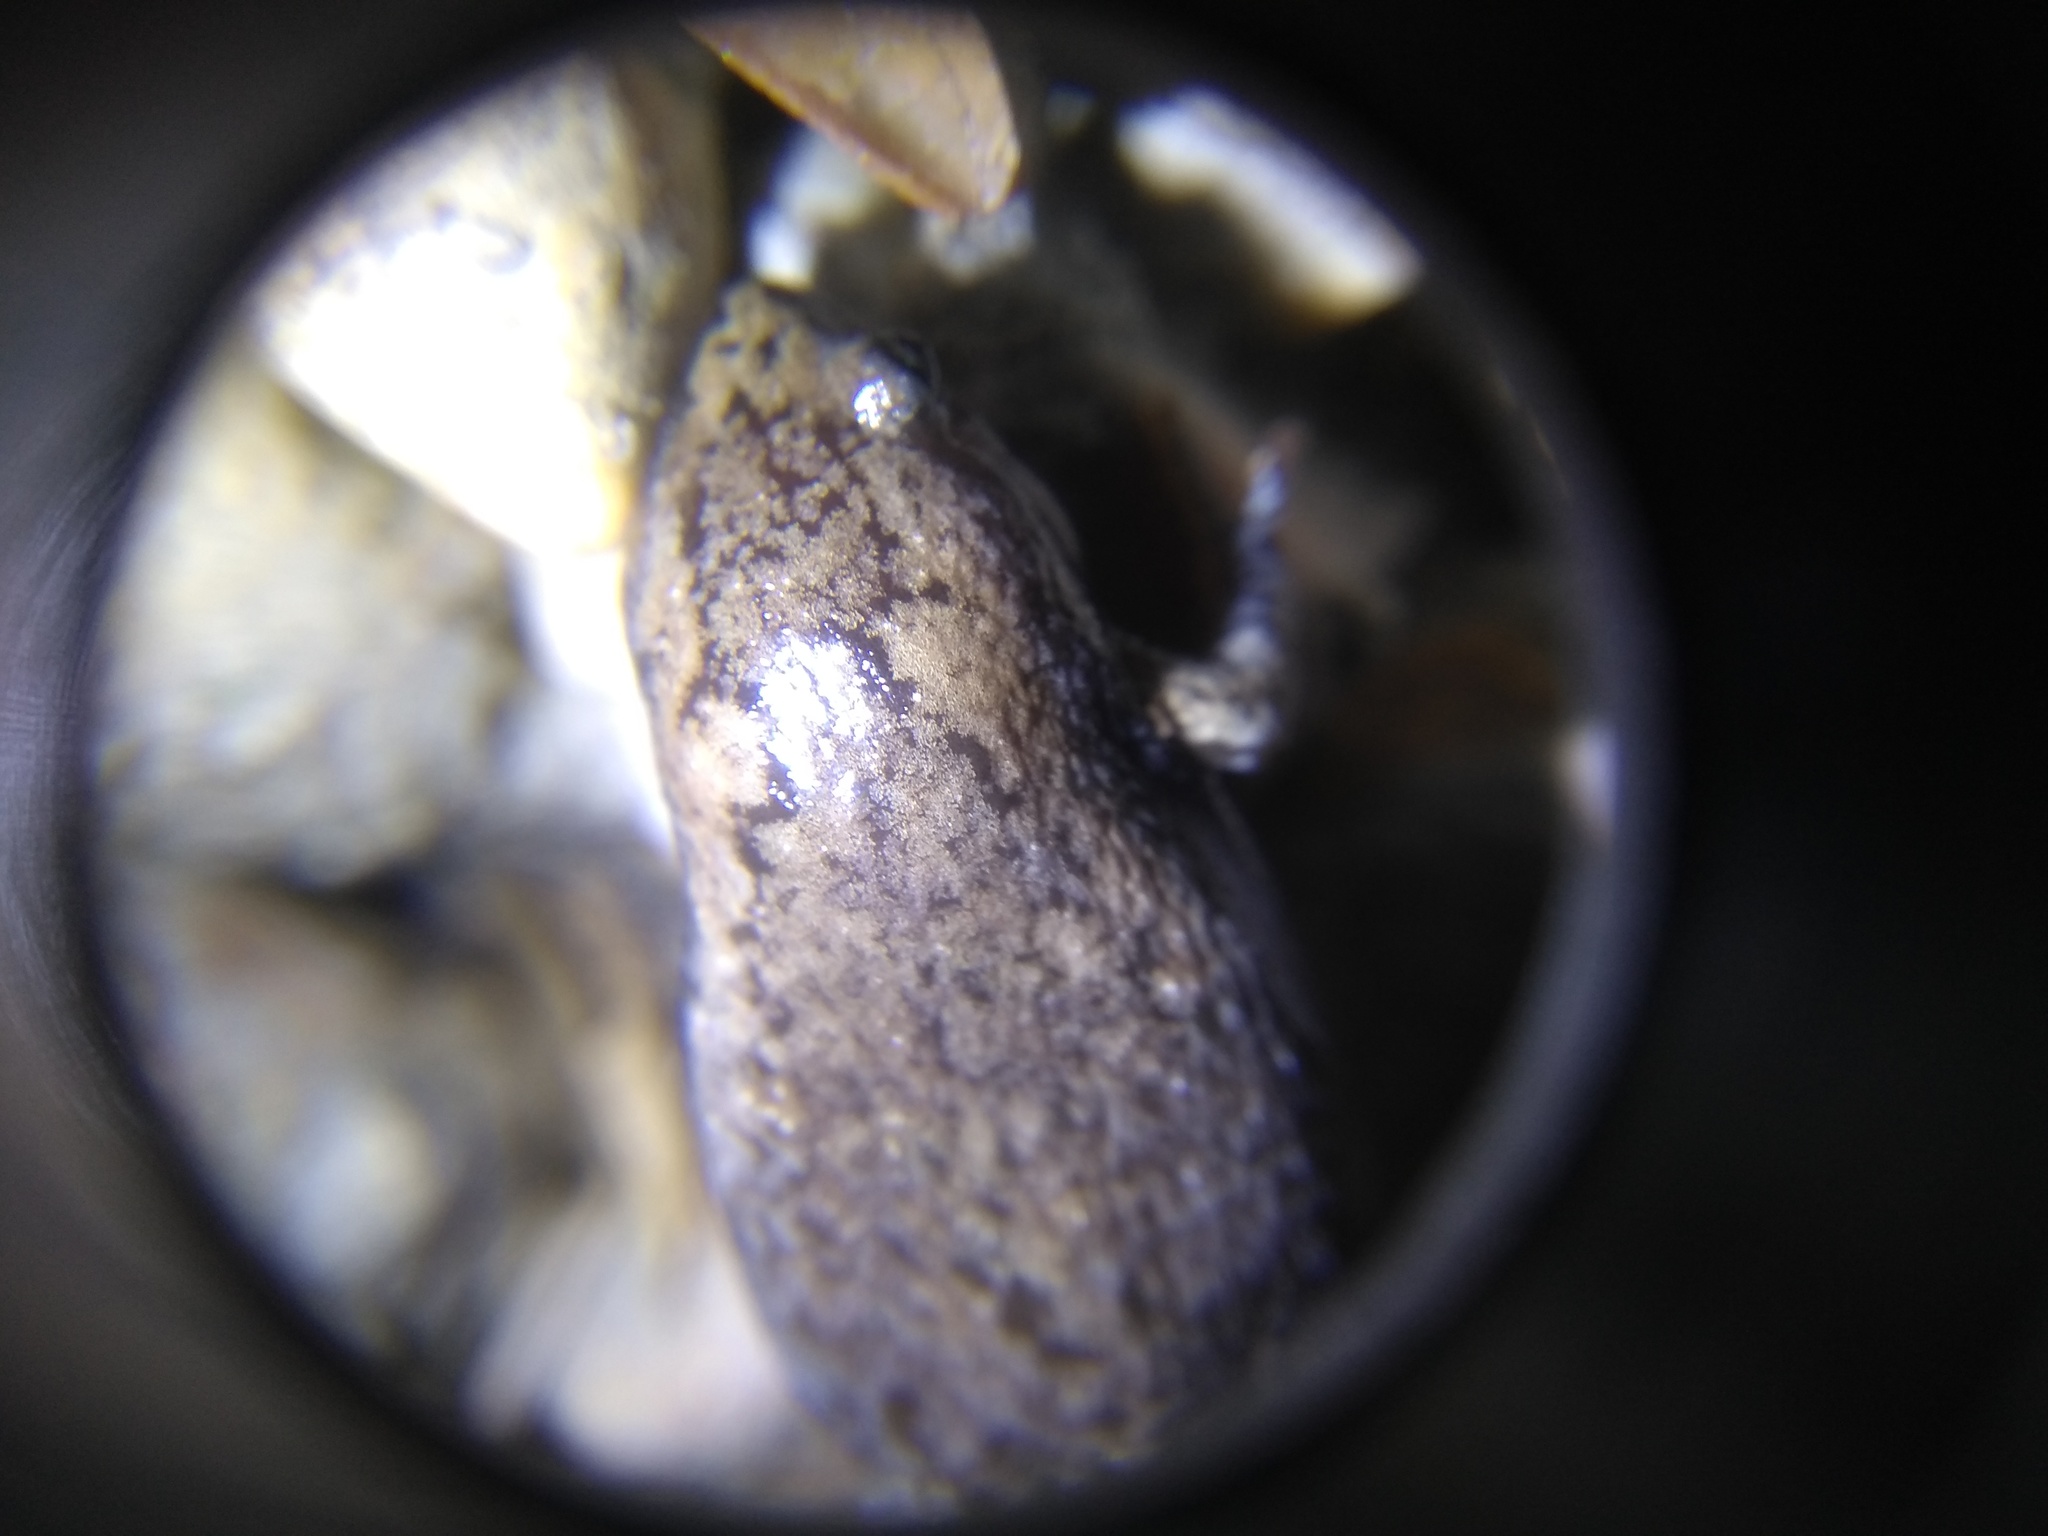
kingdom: Animalia
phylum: Chordata
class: Amphibia
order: Anura
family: Microhylidae
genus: Gastrophryne
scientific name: Gastrophryne carolinensis
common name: Eastern narrowmouth toad
